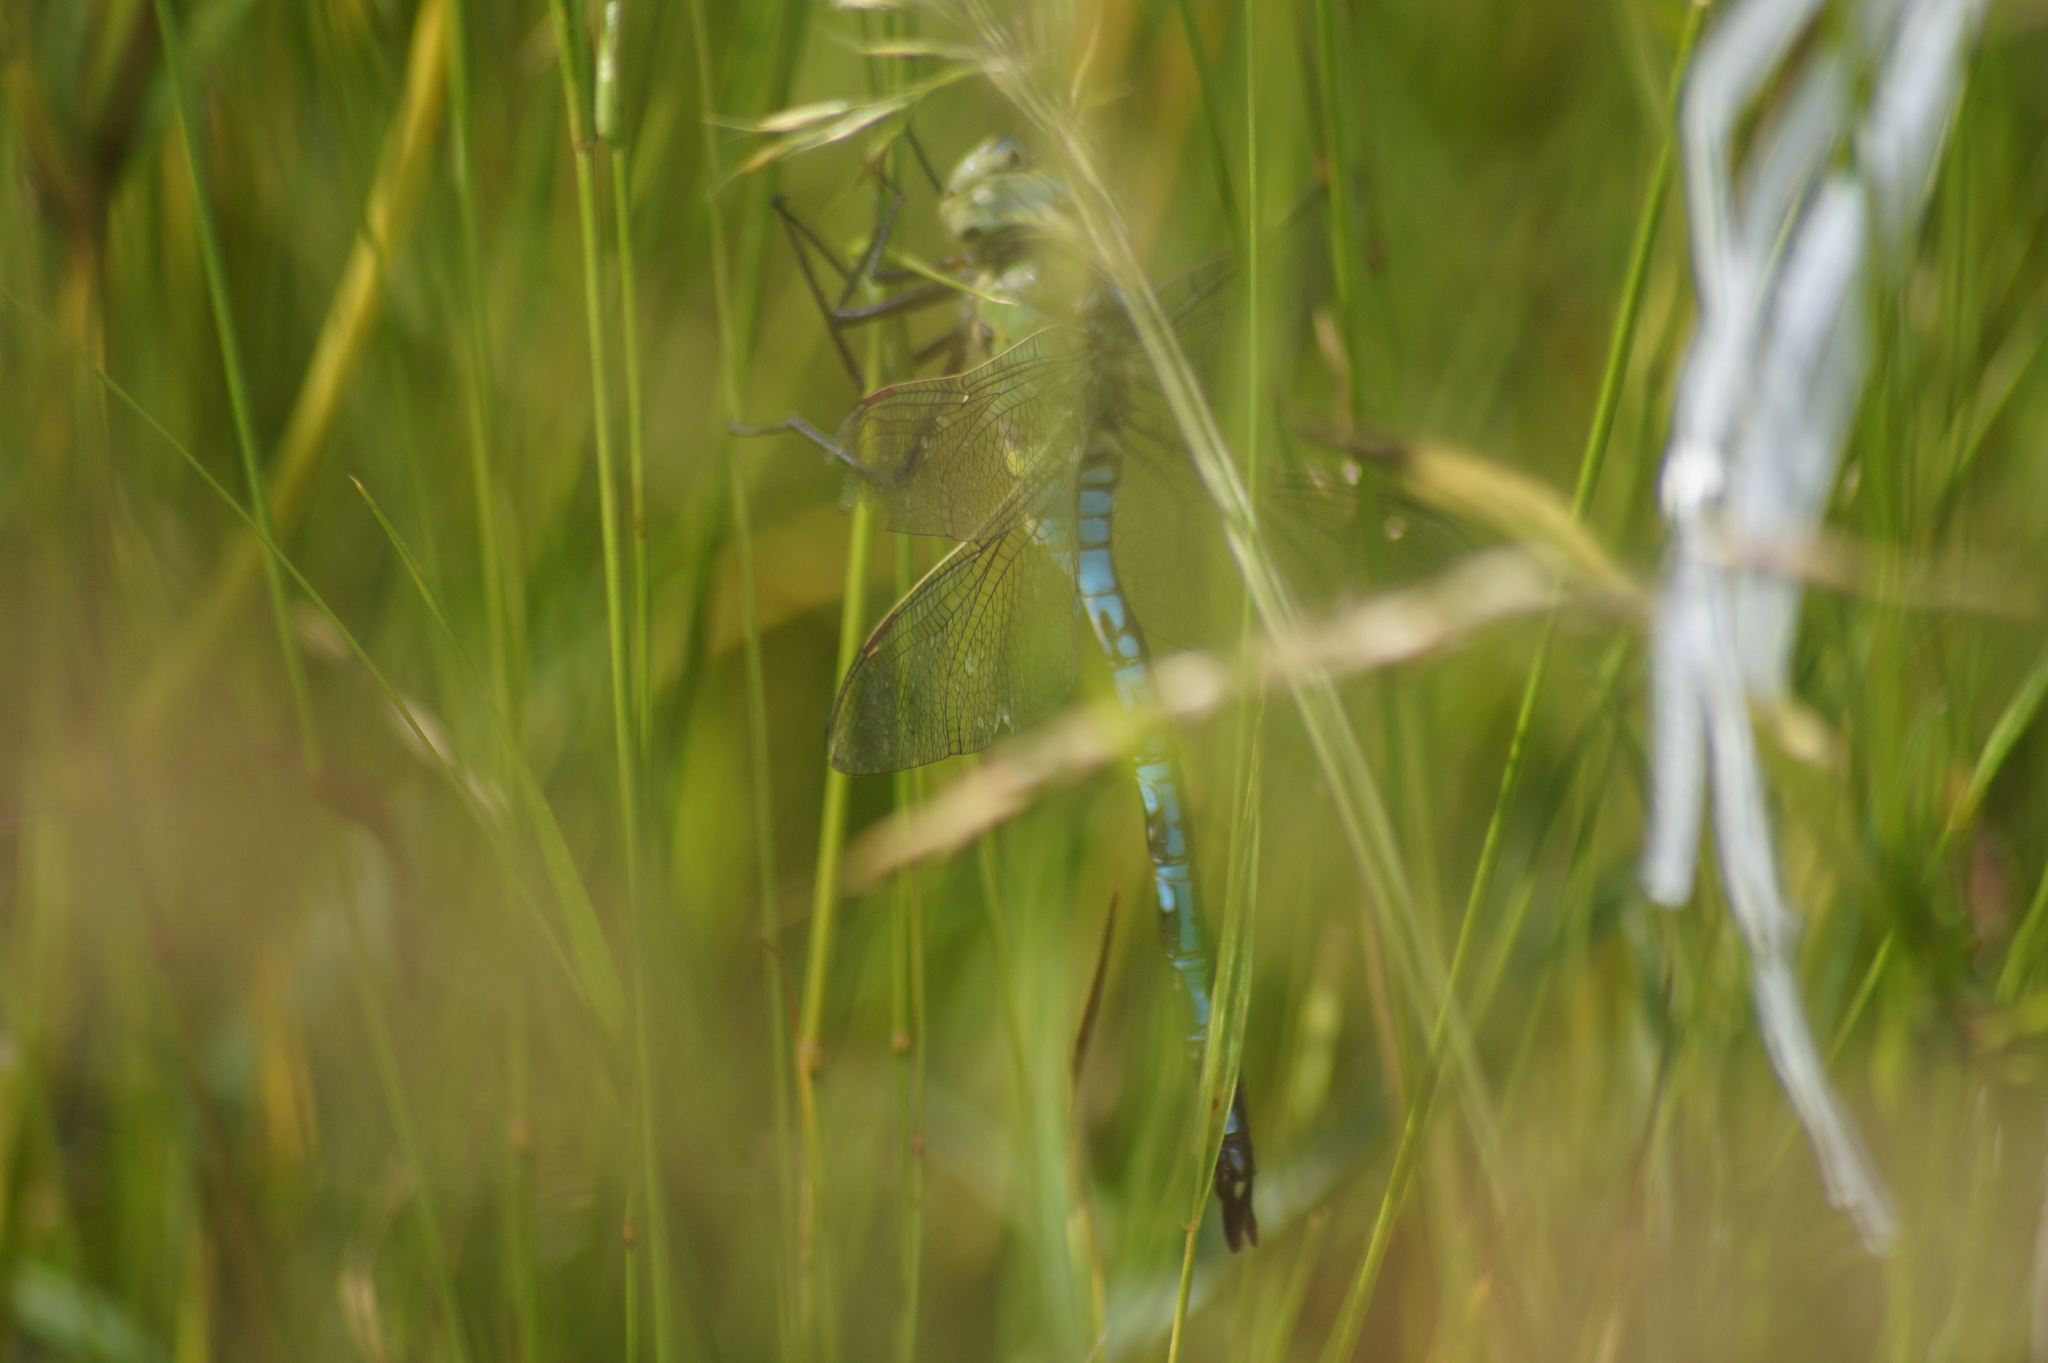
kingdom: Animalia
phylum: Arthropoda
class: Insecta
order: Odonata
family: Aeshnidae
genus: Anax
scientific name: Anax imperator
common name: Emperor dragonfly
